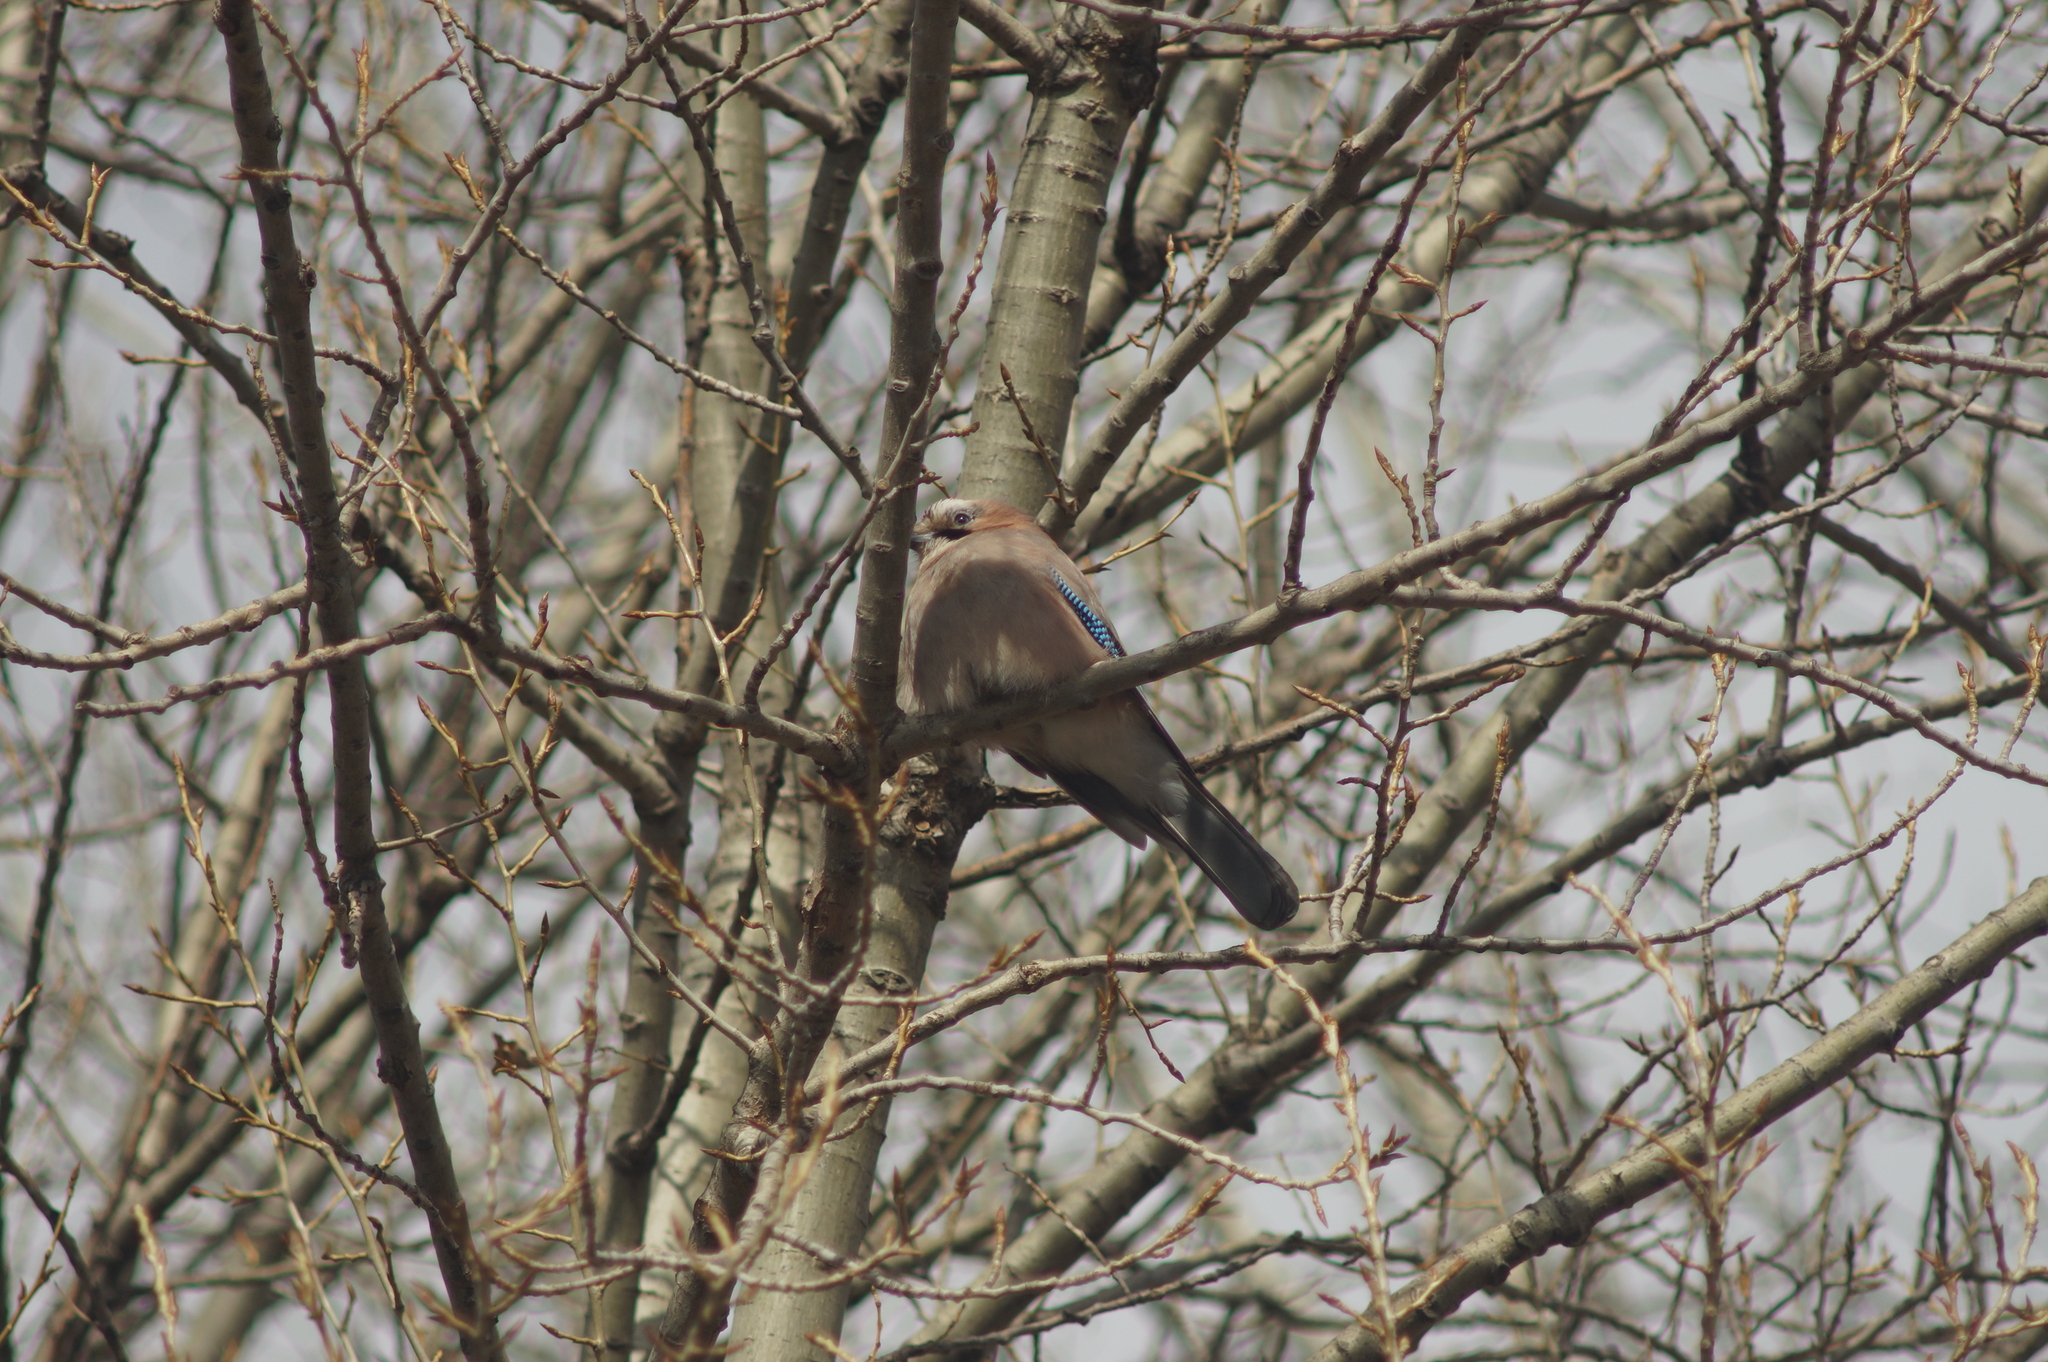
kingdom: Animalia
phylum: Chordata
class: Aves
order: Passeriformes
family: Corvidae
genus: Garrulus
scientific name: Garrulus glandarius
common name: Eurasian jay
